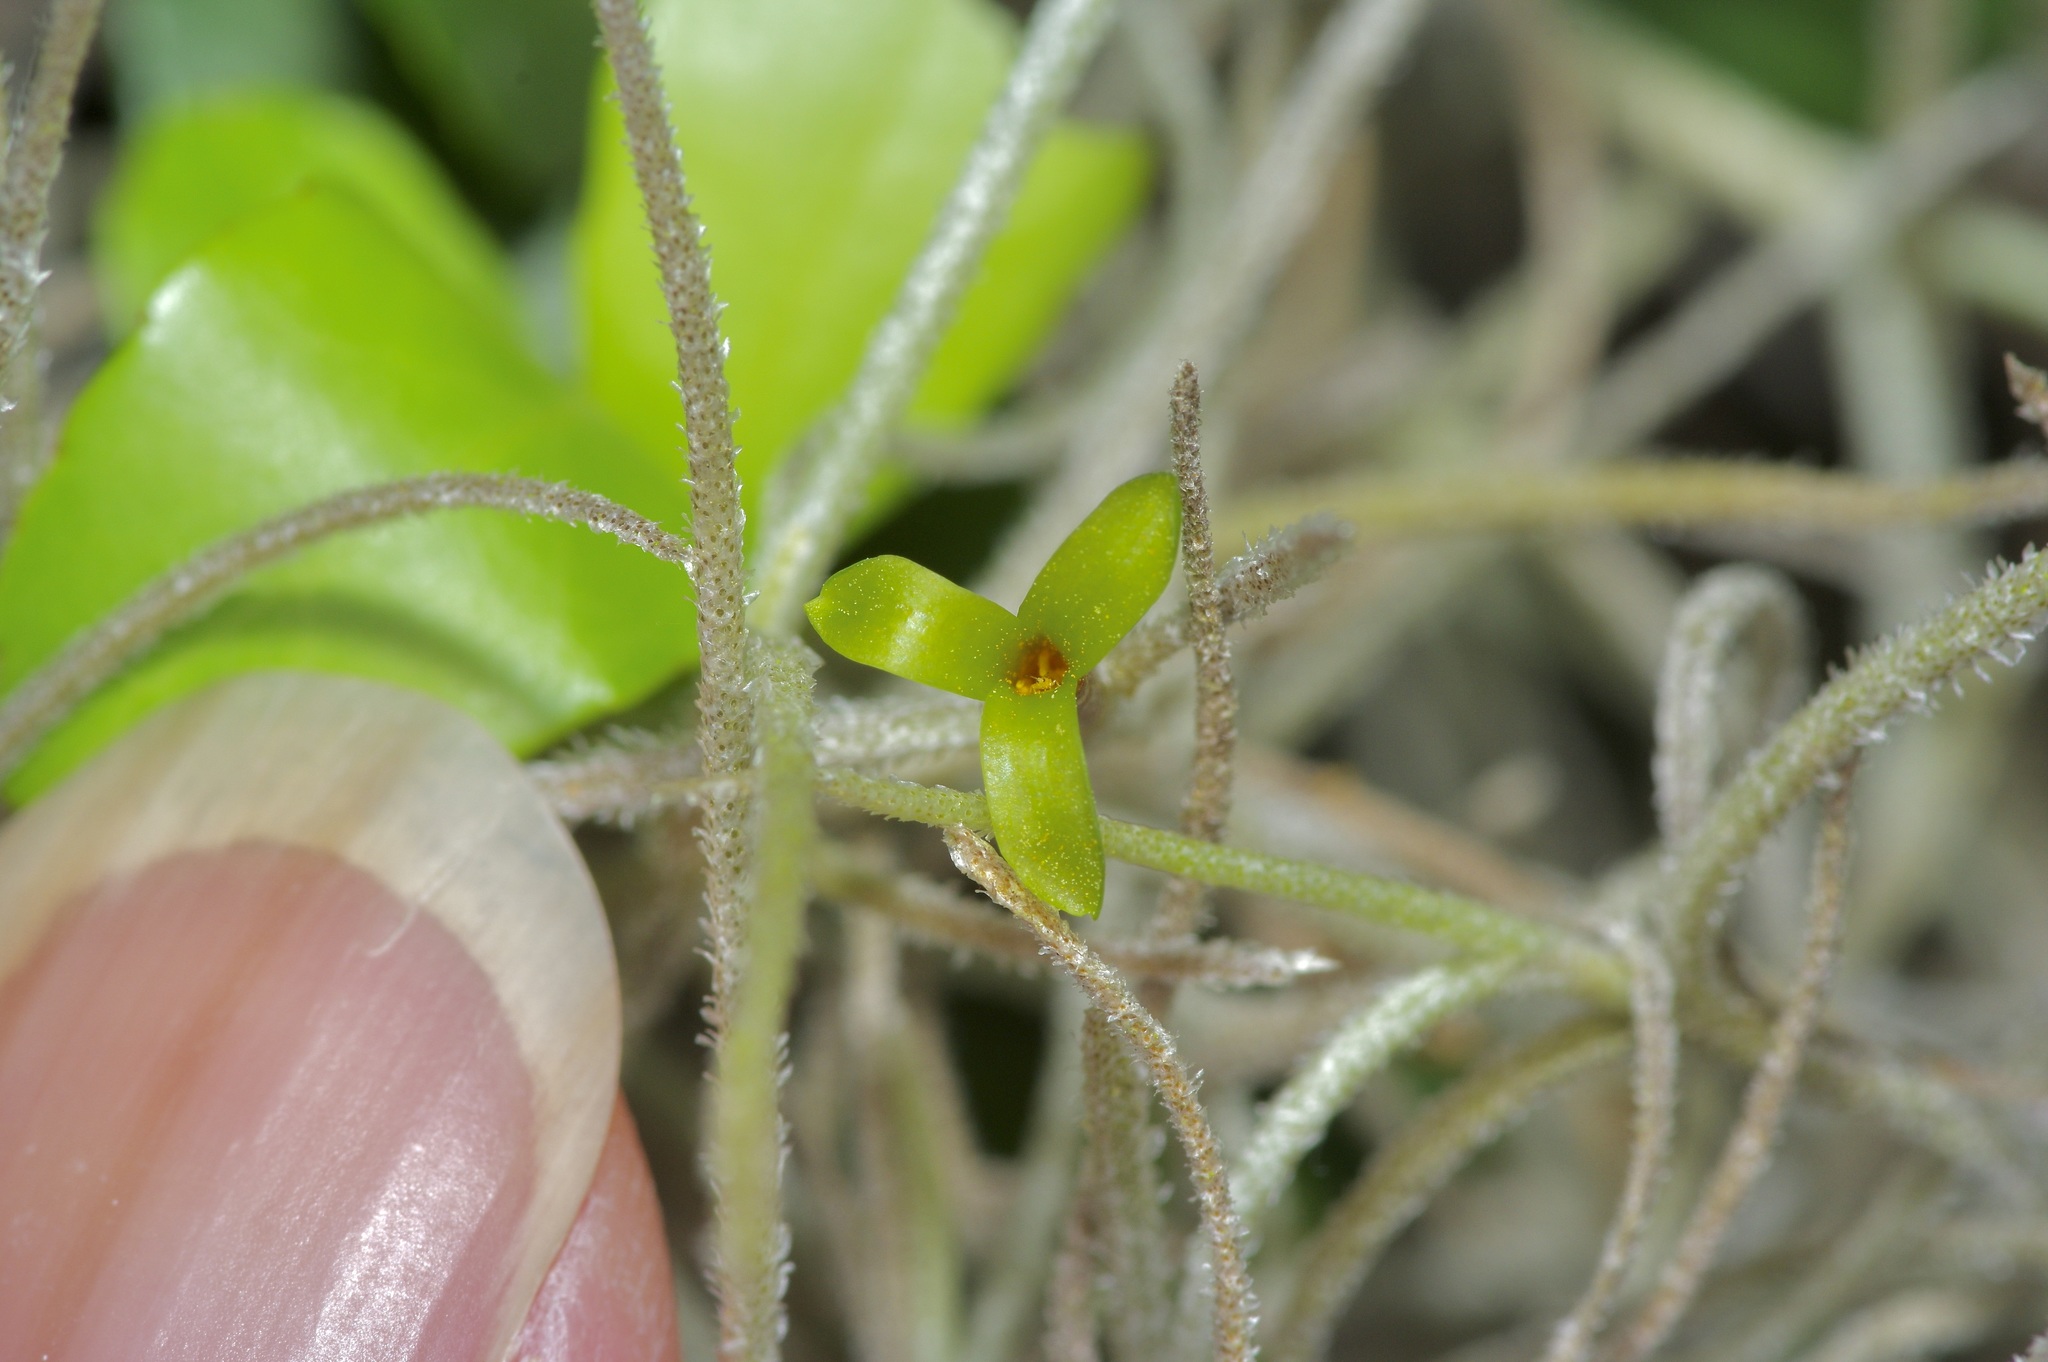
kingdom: Plantae
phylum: Tracheophyta
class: Liliopsida
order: Poales
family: Bromeliaceae
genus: Tillandsia
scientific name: Tillandsia usneoides
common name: Spanish moss
